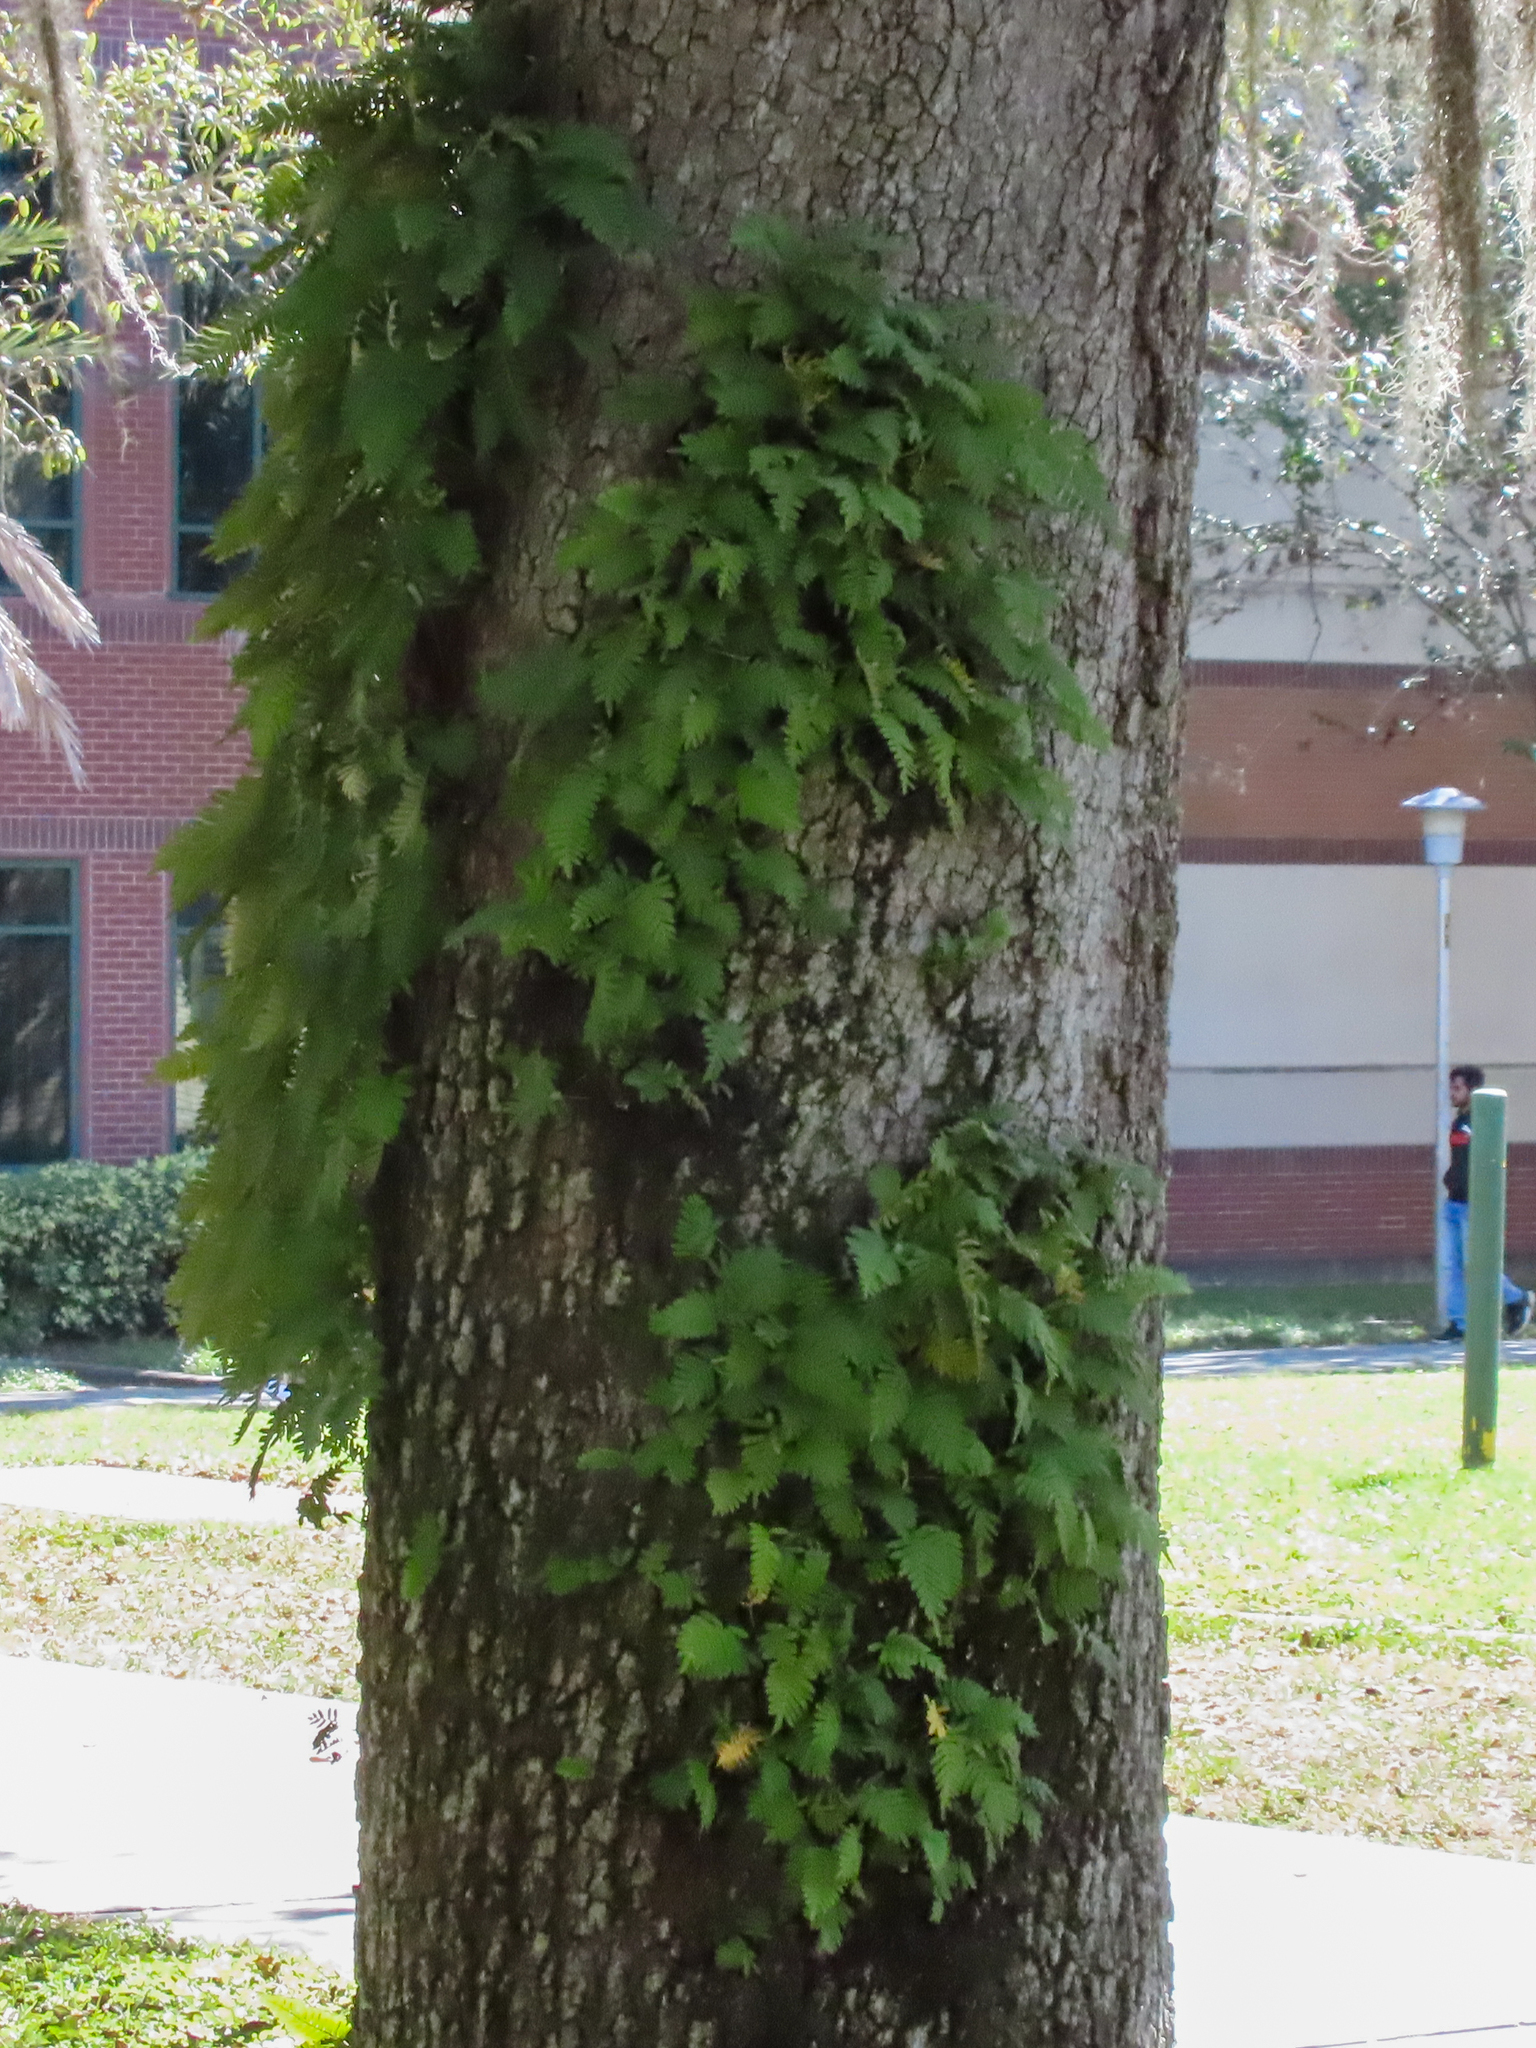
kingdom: Plantae
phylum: Tracheophyta
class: Polypodiopsida
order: Polypodiales
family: Polypodiaceae
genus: Pleopeltis
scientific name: Pleopeltis michauxiana
